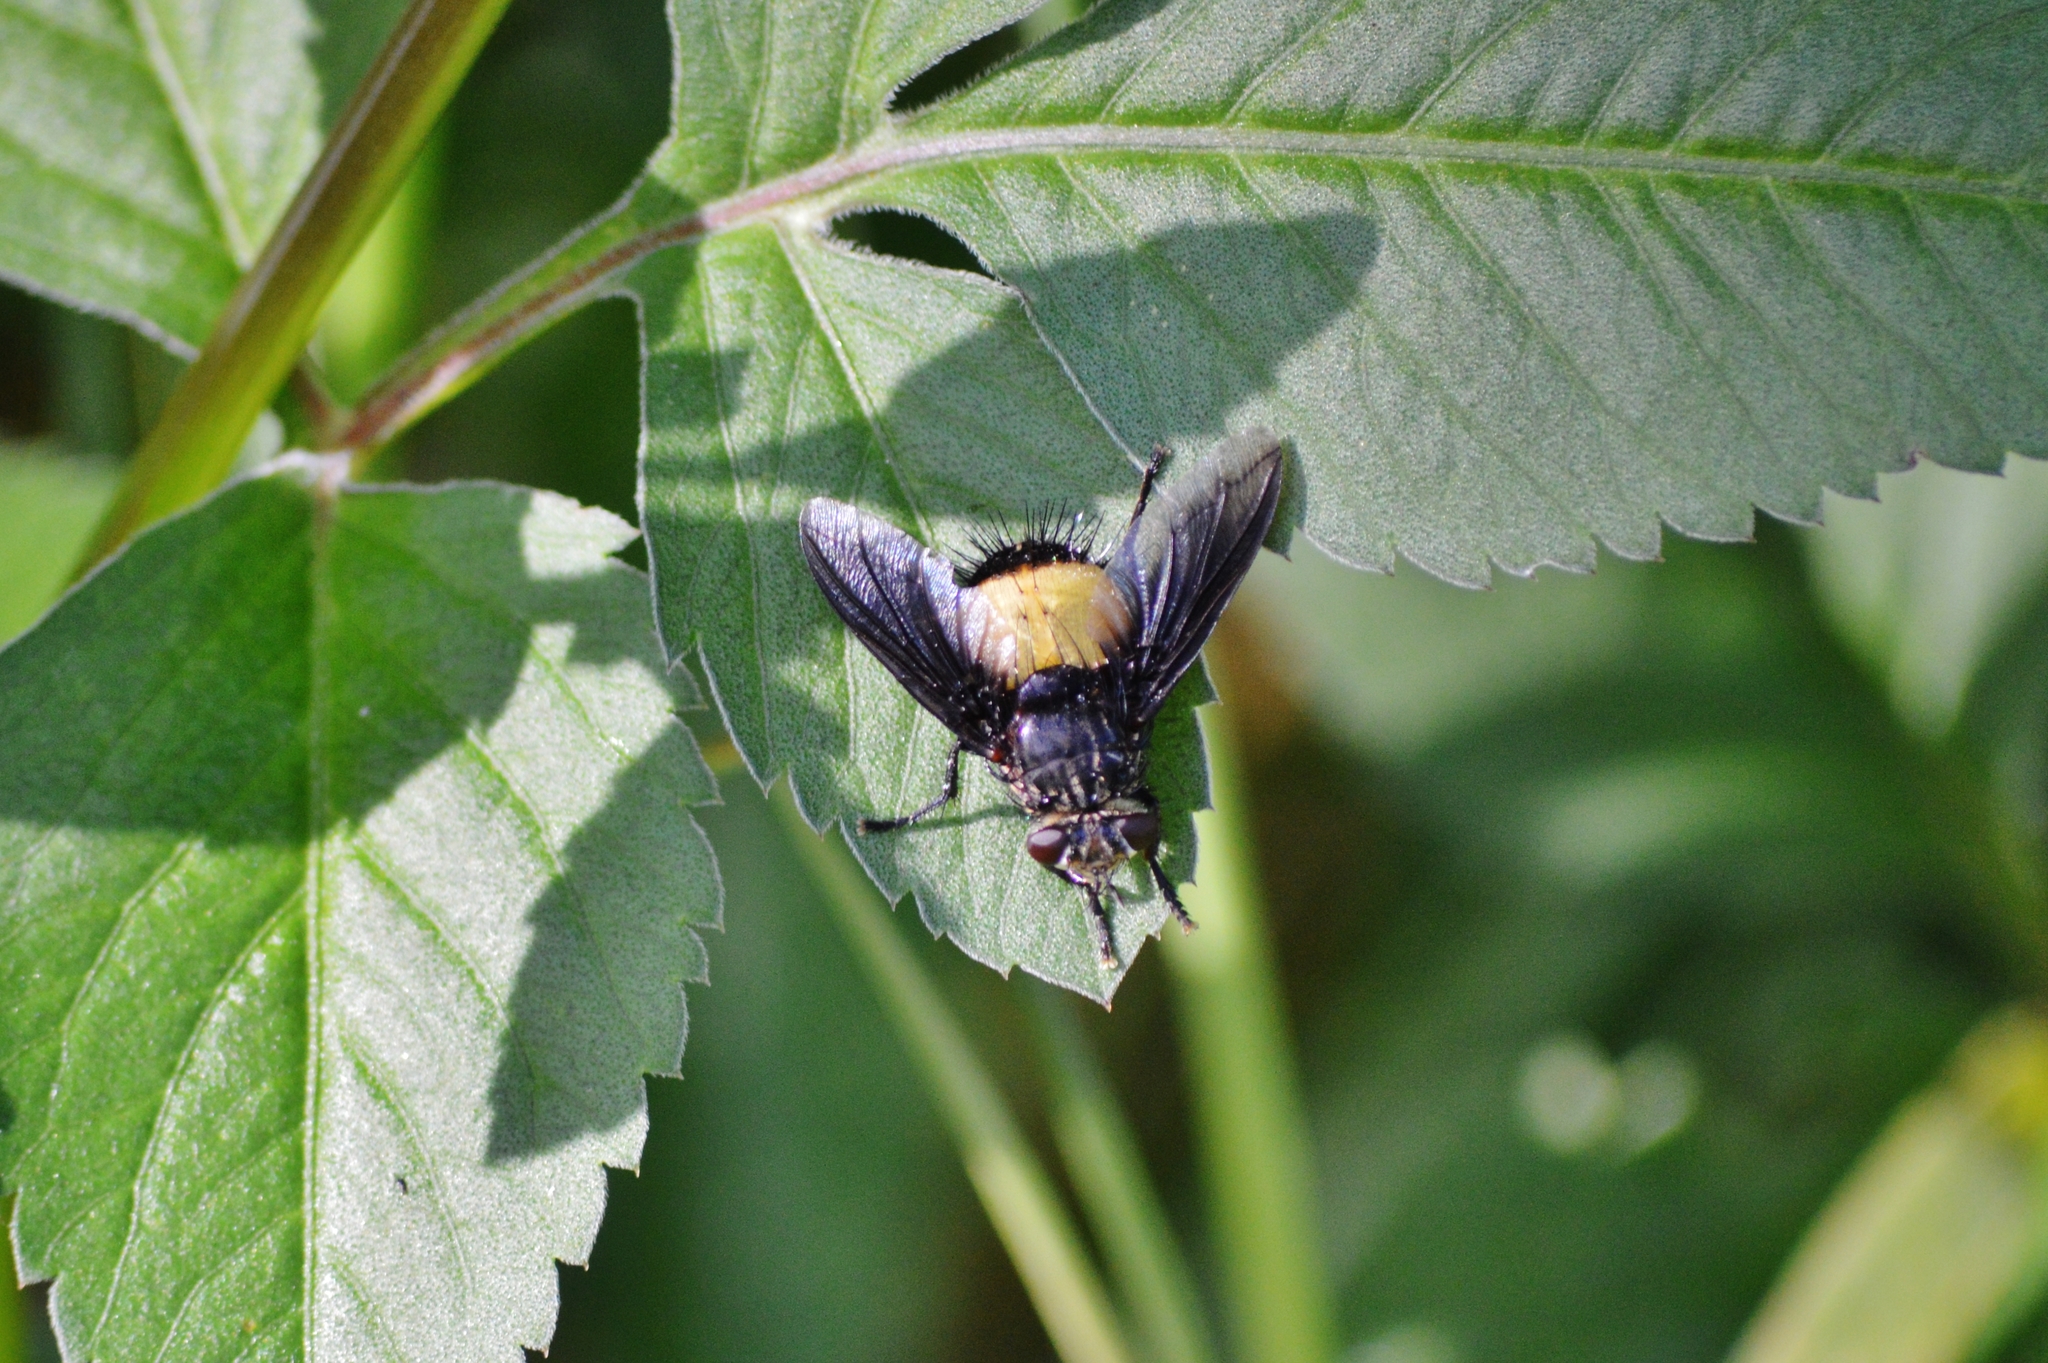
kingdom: Animalia
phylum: Arthropoda
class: Insecta
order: Diptera
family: Tachinidae
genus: Xanthozona
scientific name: Xanthozona melanopyga
